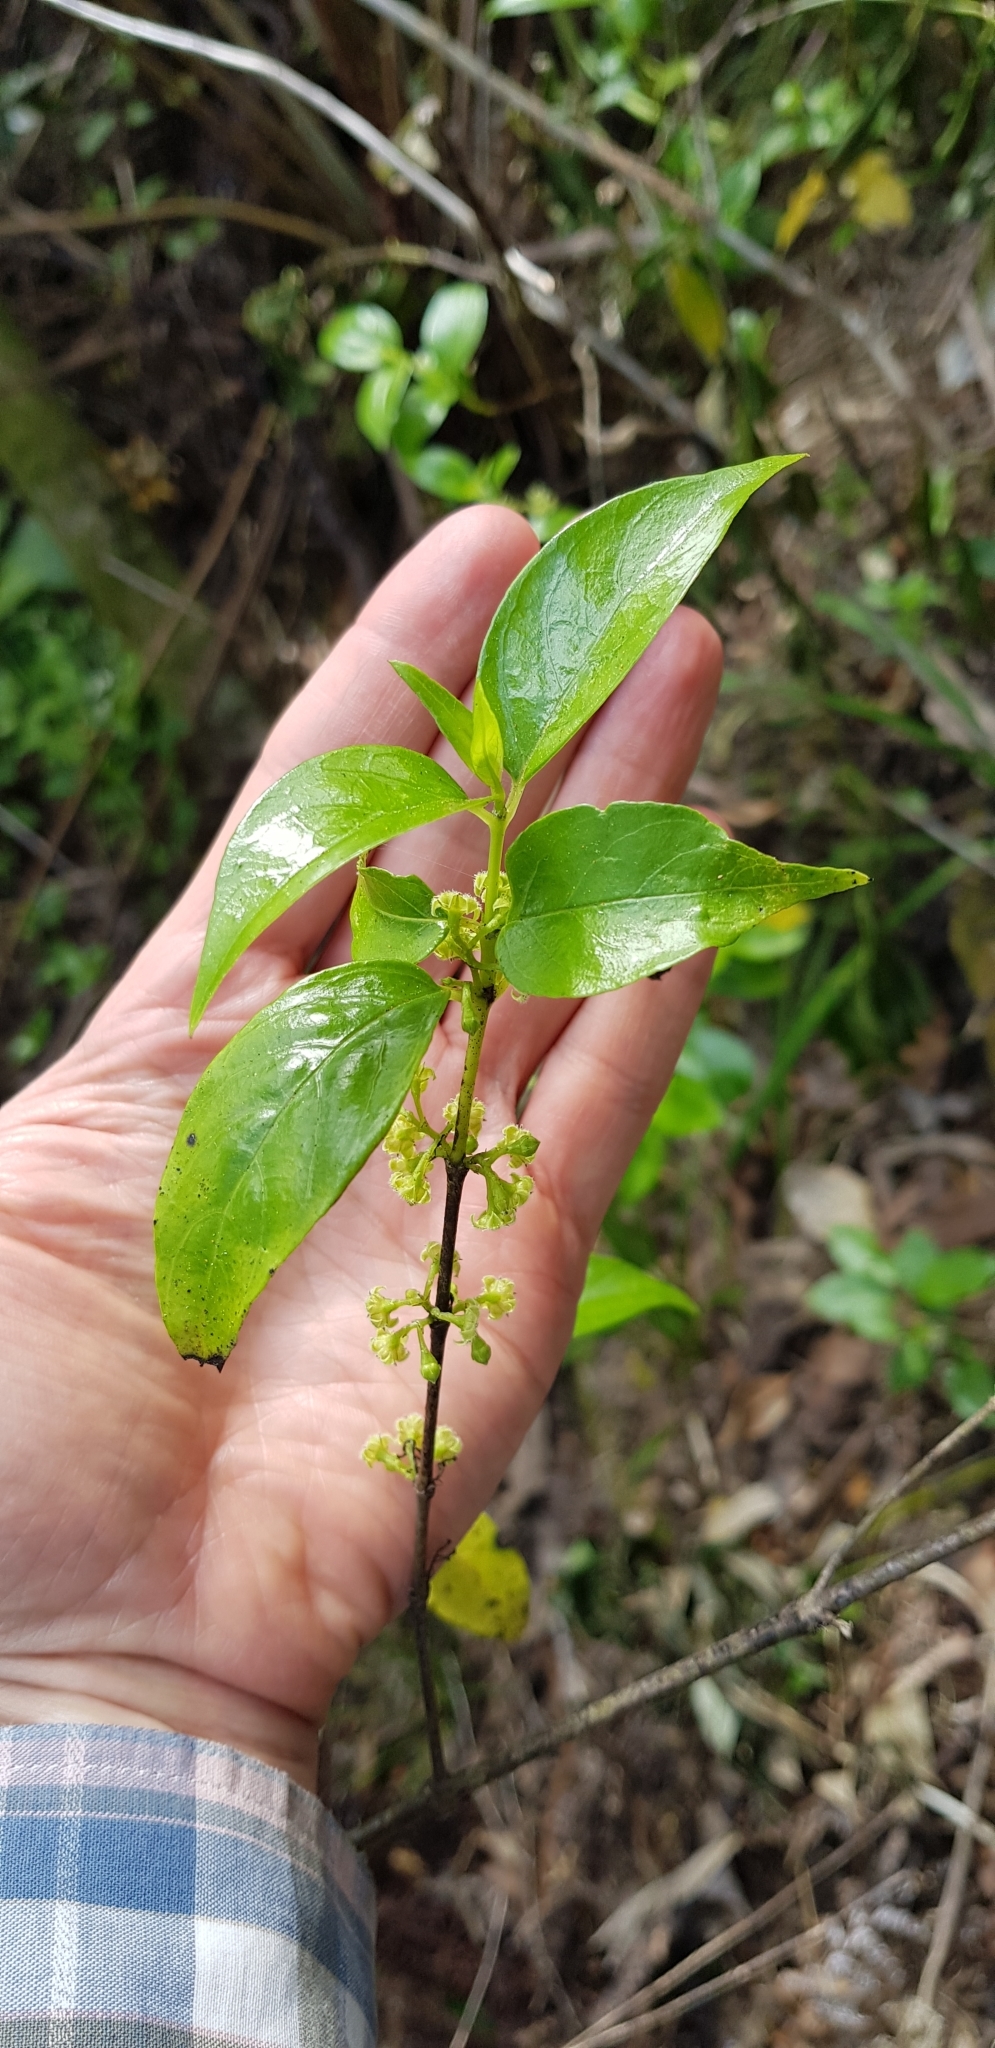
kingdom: Plantae
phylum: Tracheophyta
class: Magnoliopsida
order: Gentianales
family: Loganiaceae
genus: Geniostoma
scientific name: Geniostoma ligustrifolium
